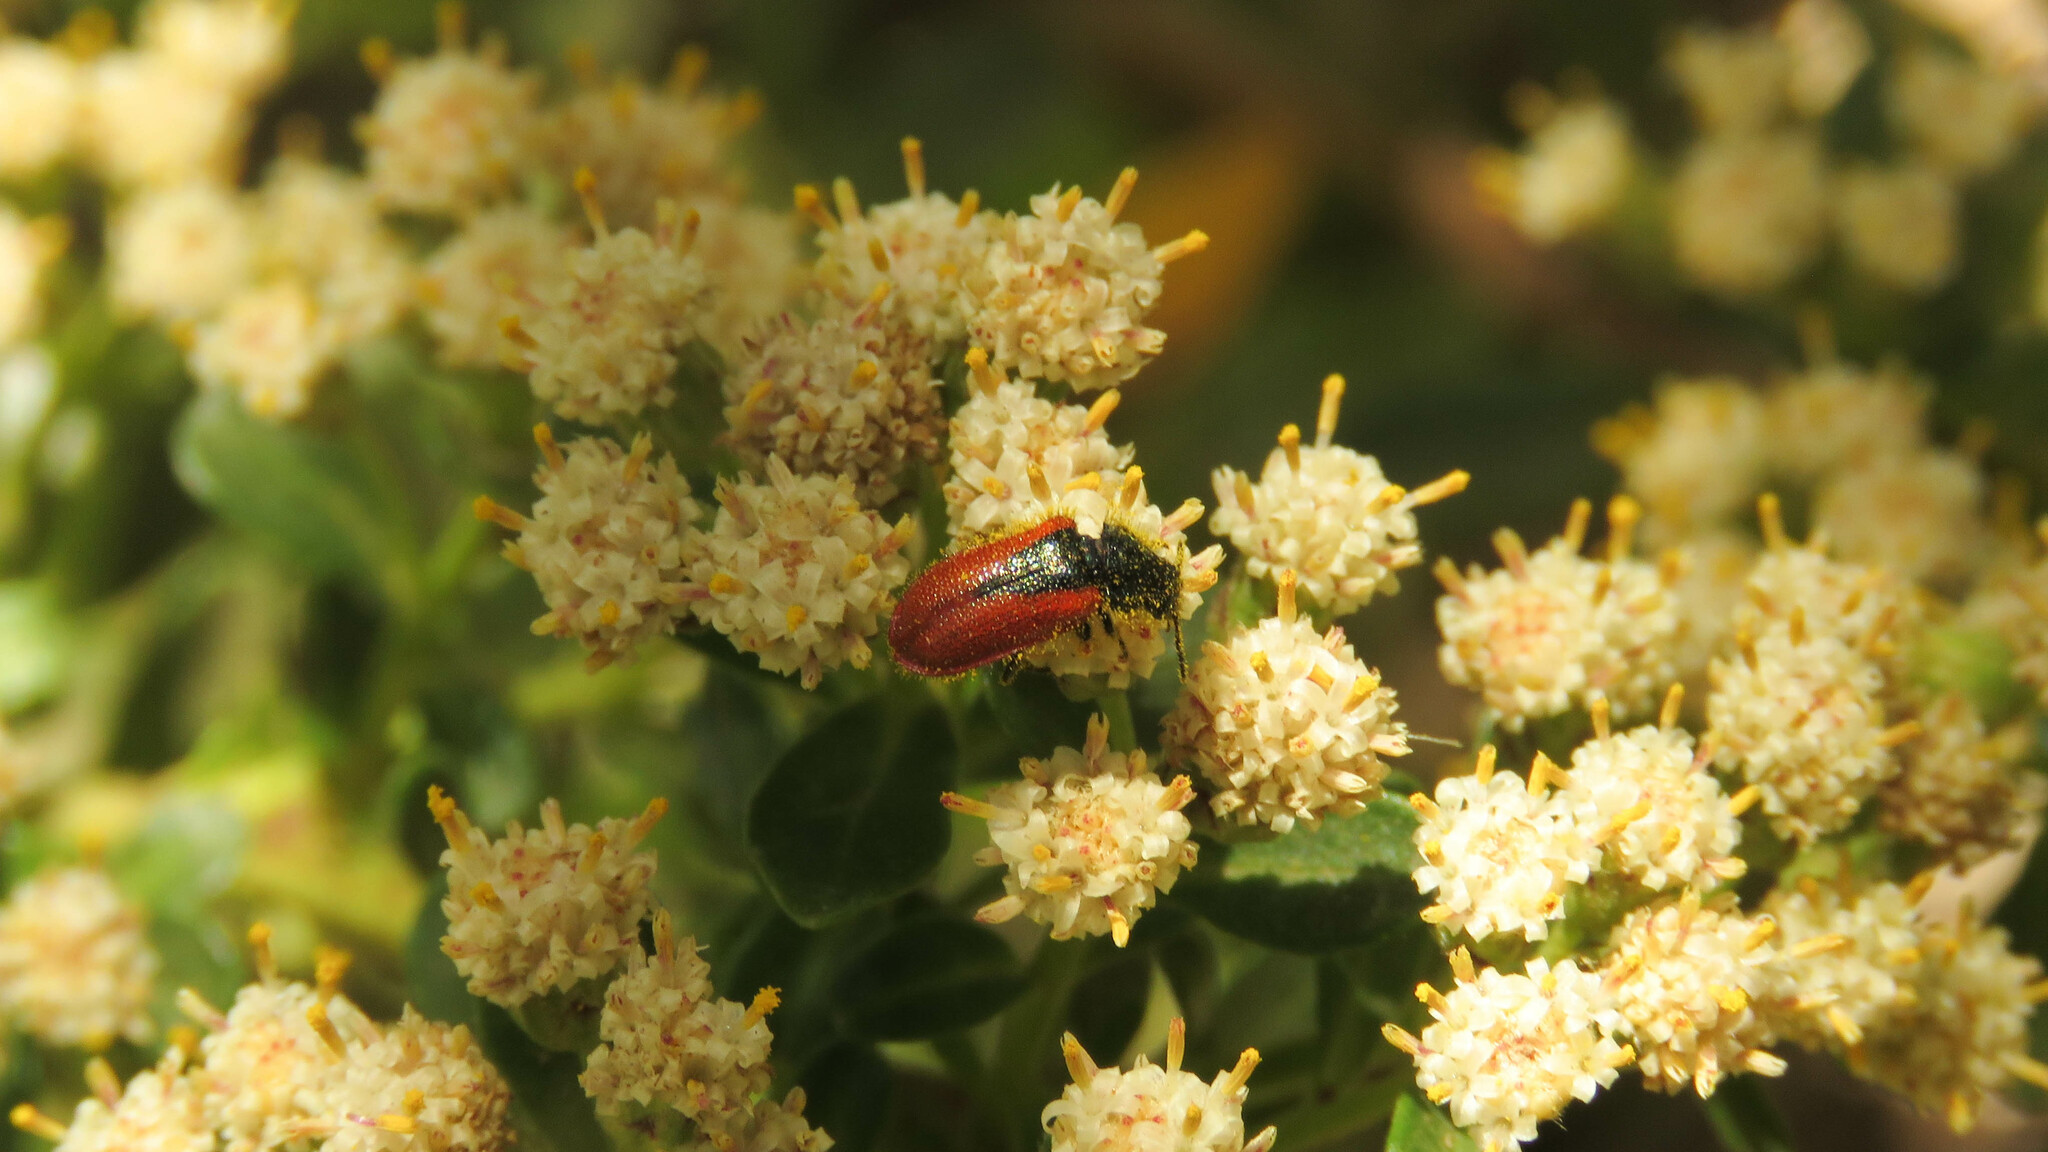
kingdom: Animalia
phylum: Arthropoda
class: Insecta
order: Coleoptera
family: Melyridae
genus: Arthrobrachus
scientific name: Arthrobrachus nigromaculatus
